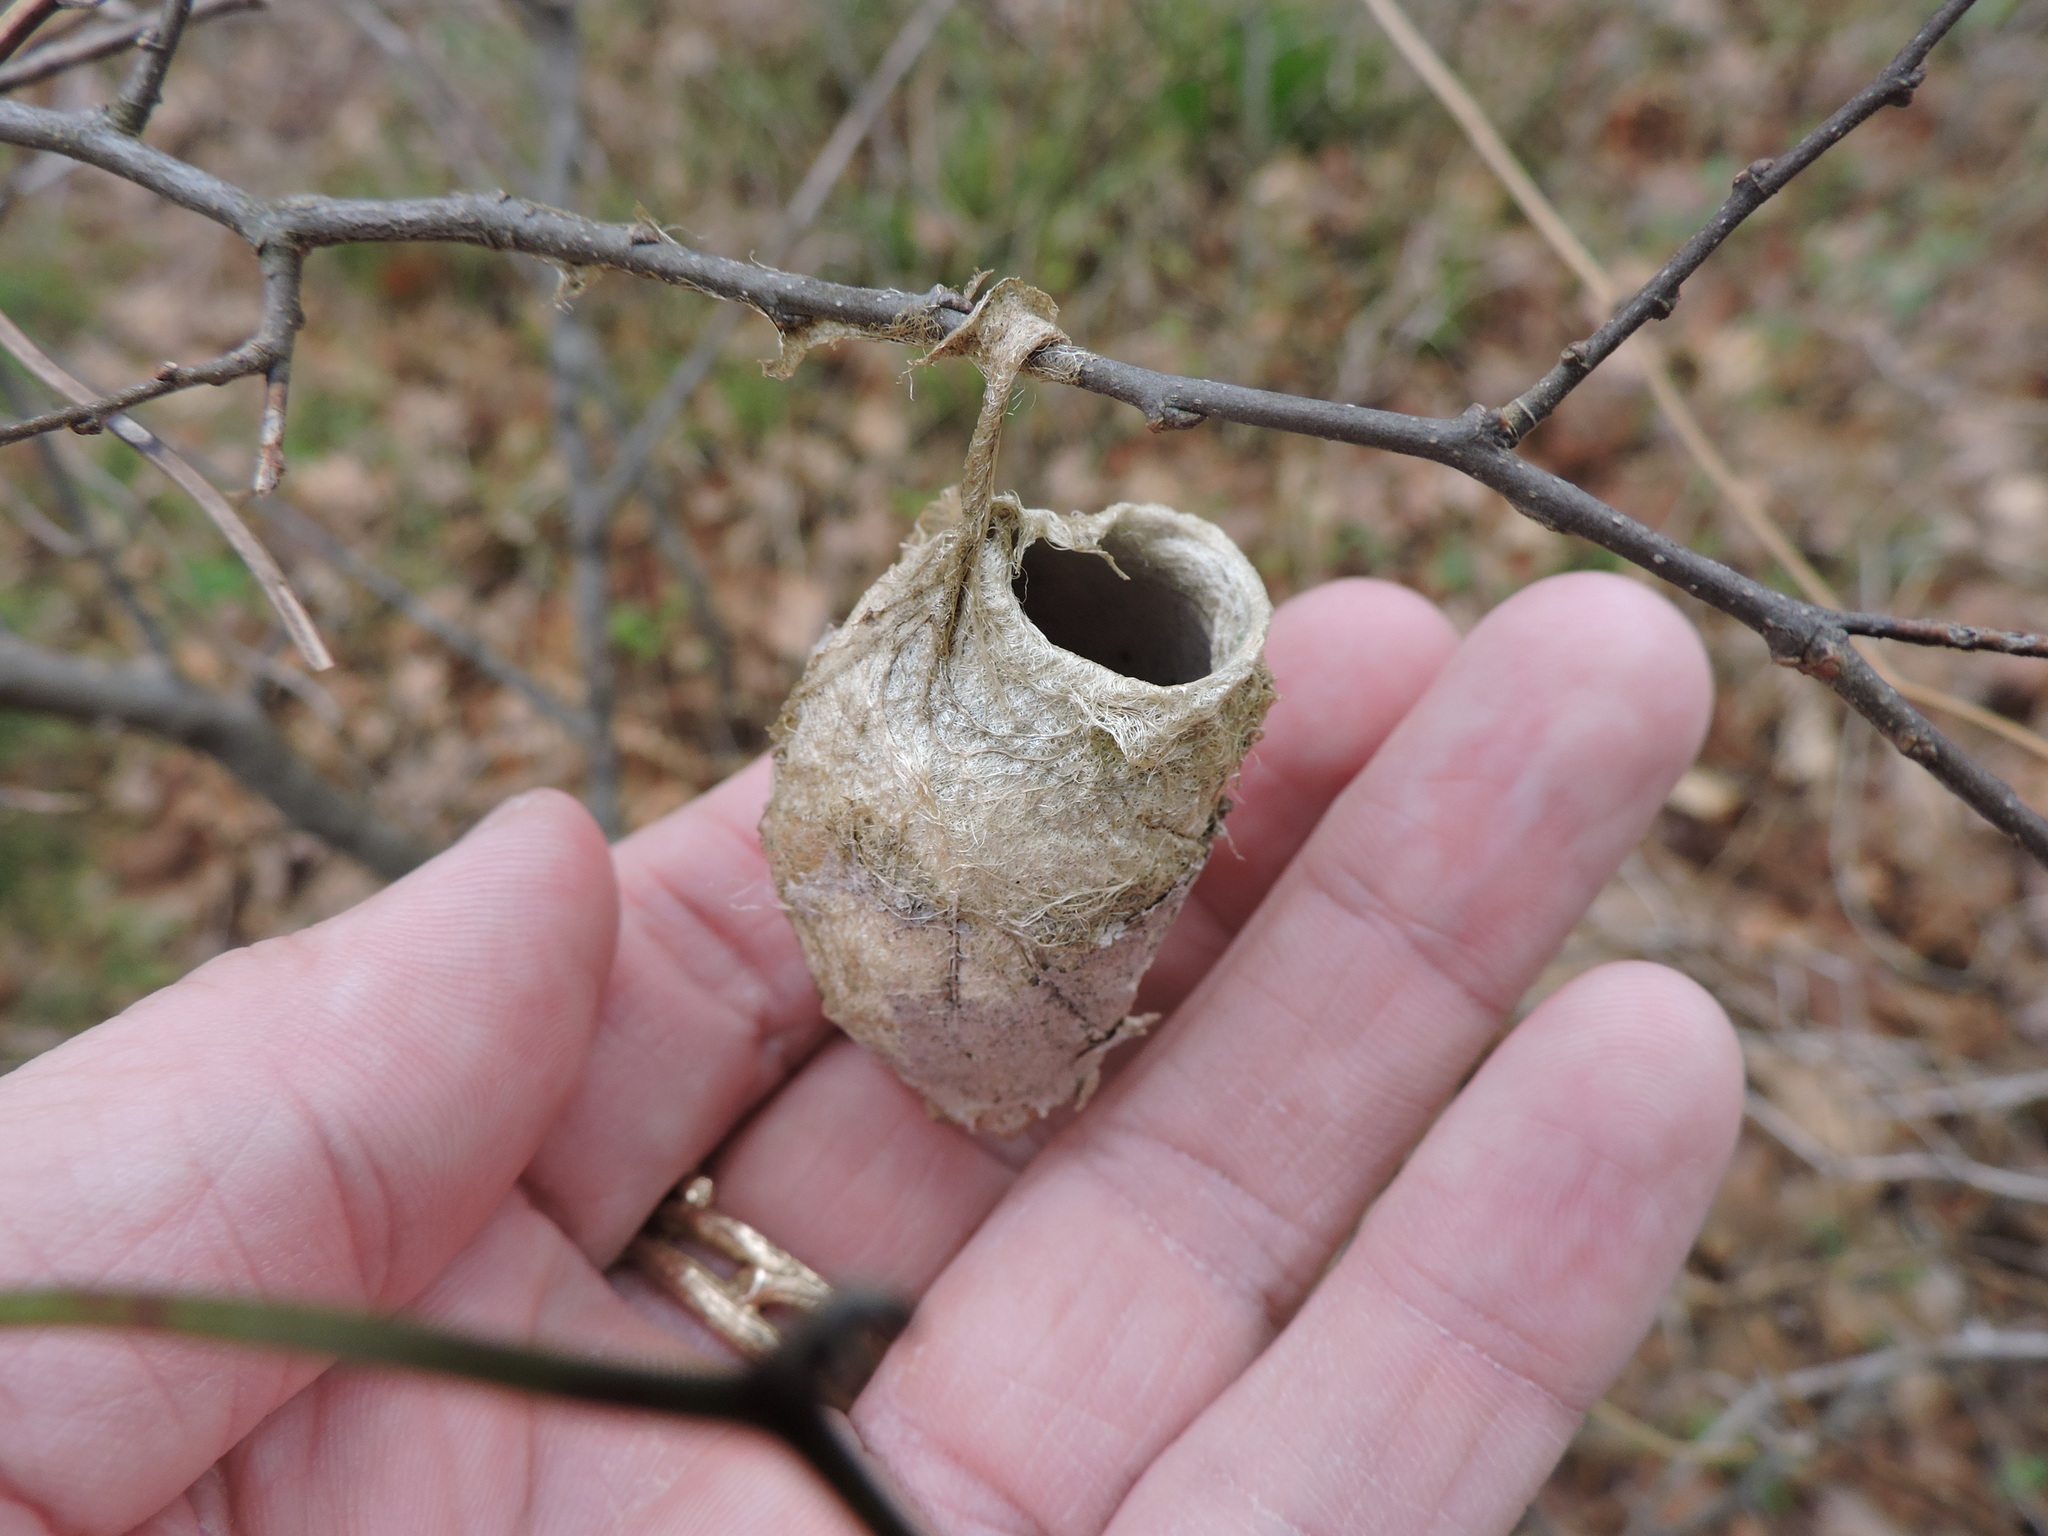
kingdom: Animalia
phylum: Arthropoda
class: Insecta
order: Lepidoptera
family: Saturniidae
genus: Antheraea
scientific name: Antheraea polyphemus
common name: Polyphemus moth
